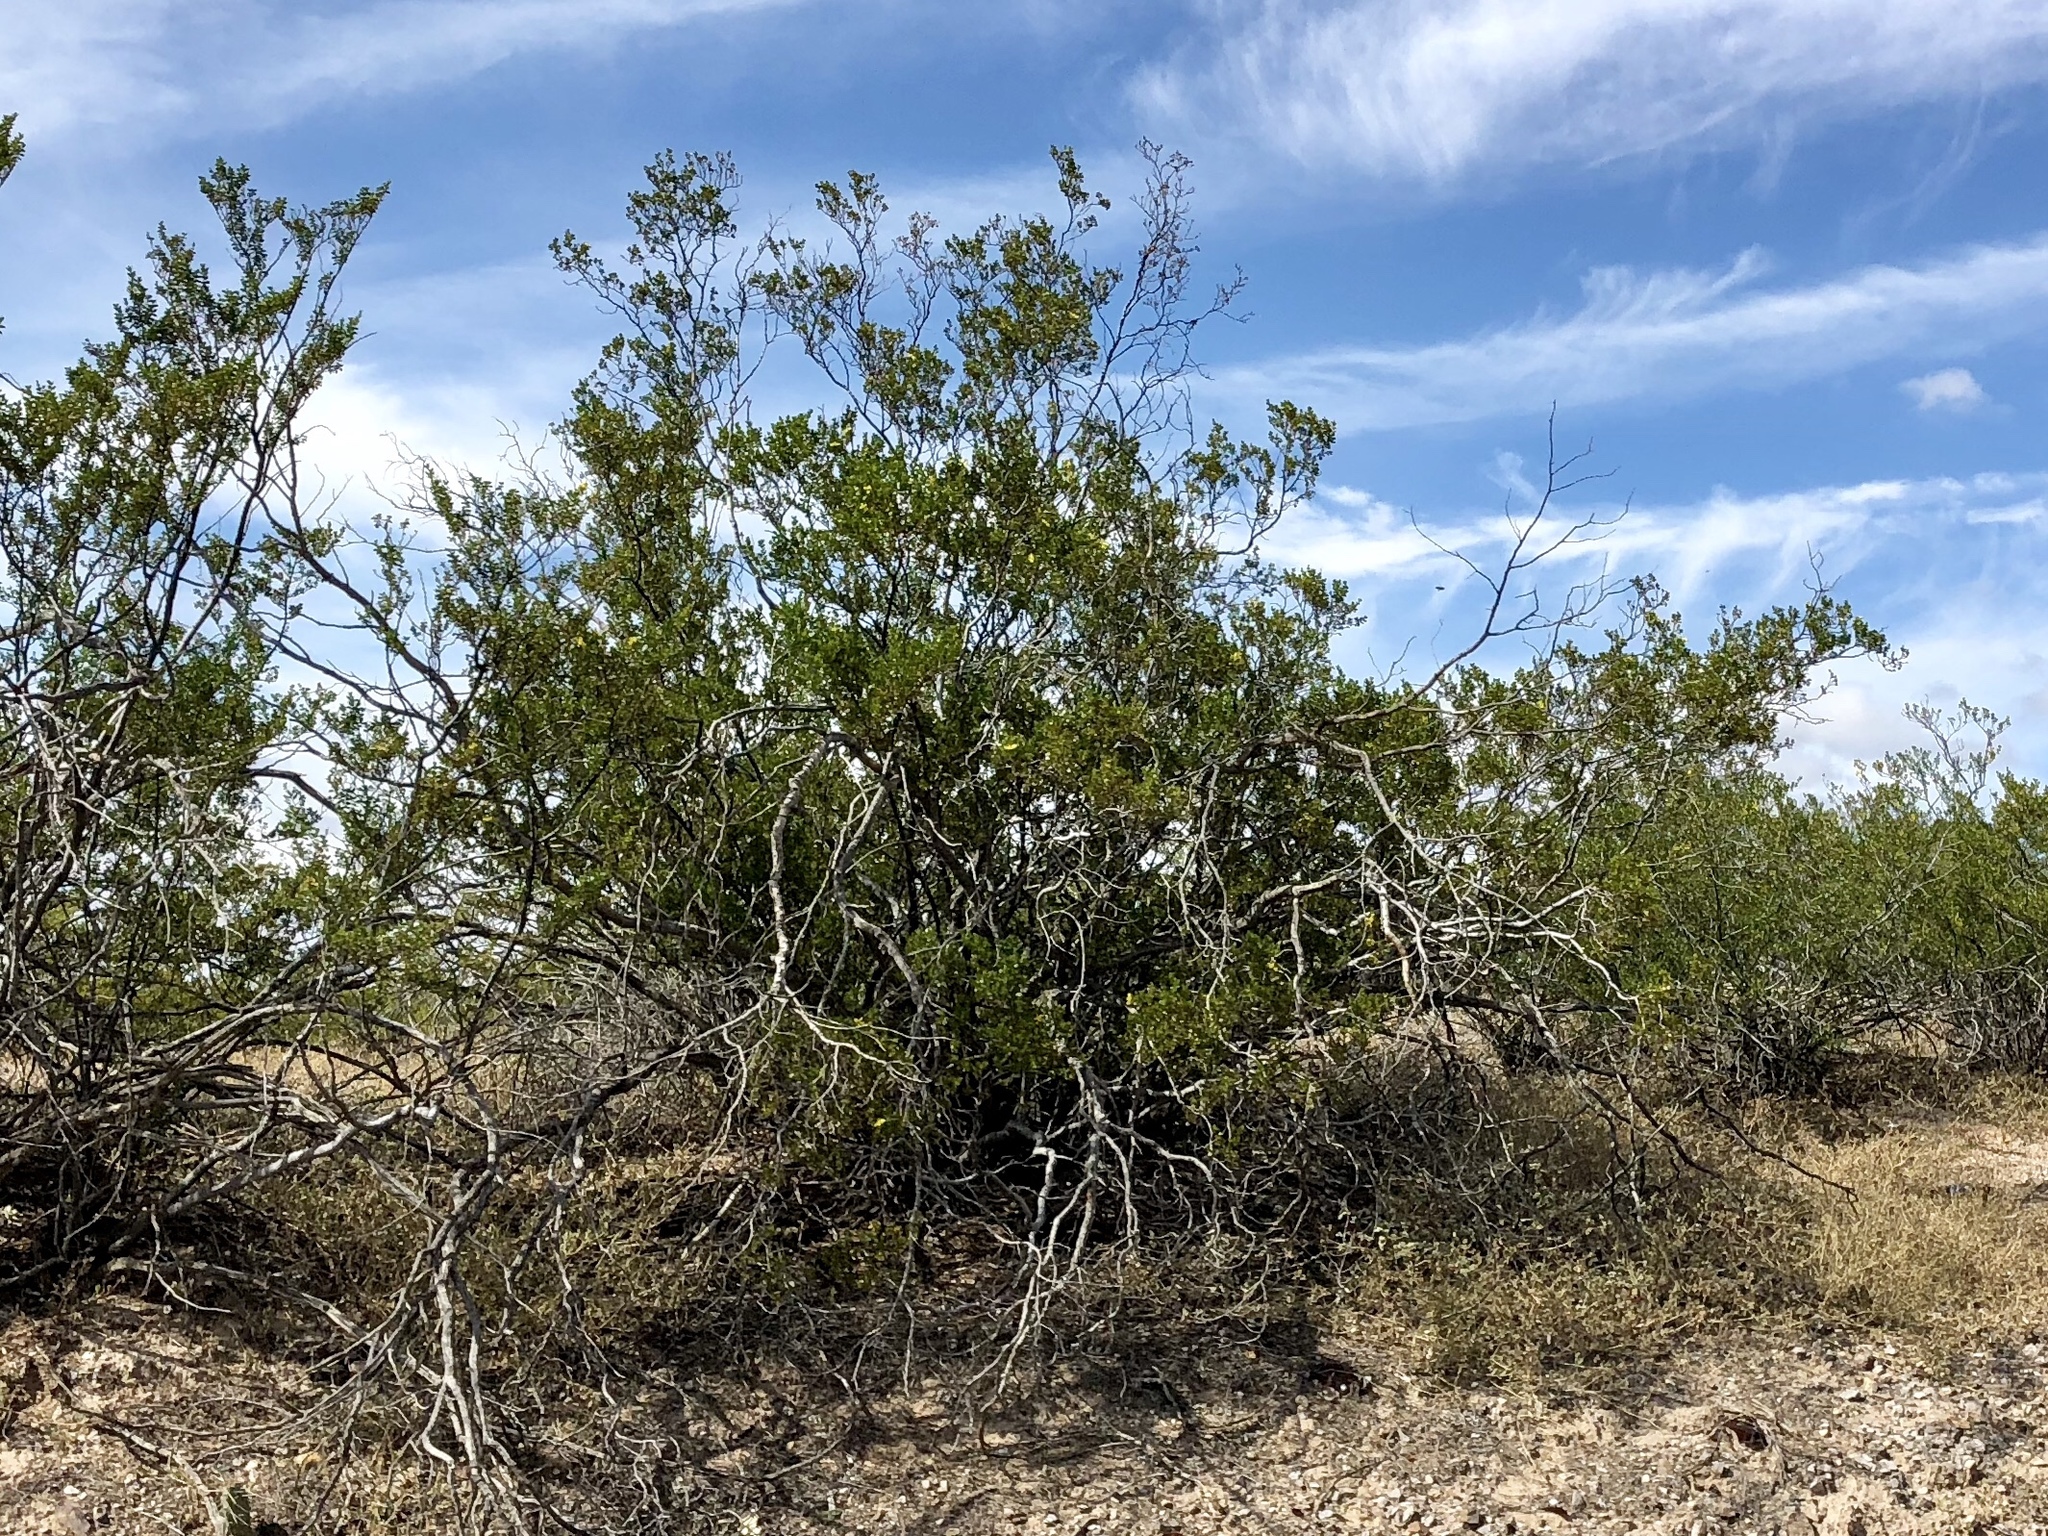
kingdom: Plantae
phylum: Tracheophyta
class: Magnoliopsida
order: Zygophyllales
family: Zygophyllaceae
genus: Larrea
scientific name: Larrea tridentata
